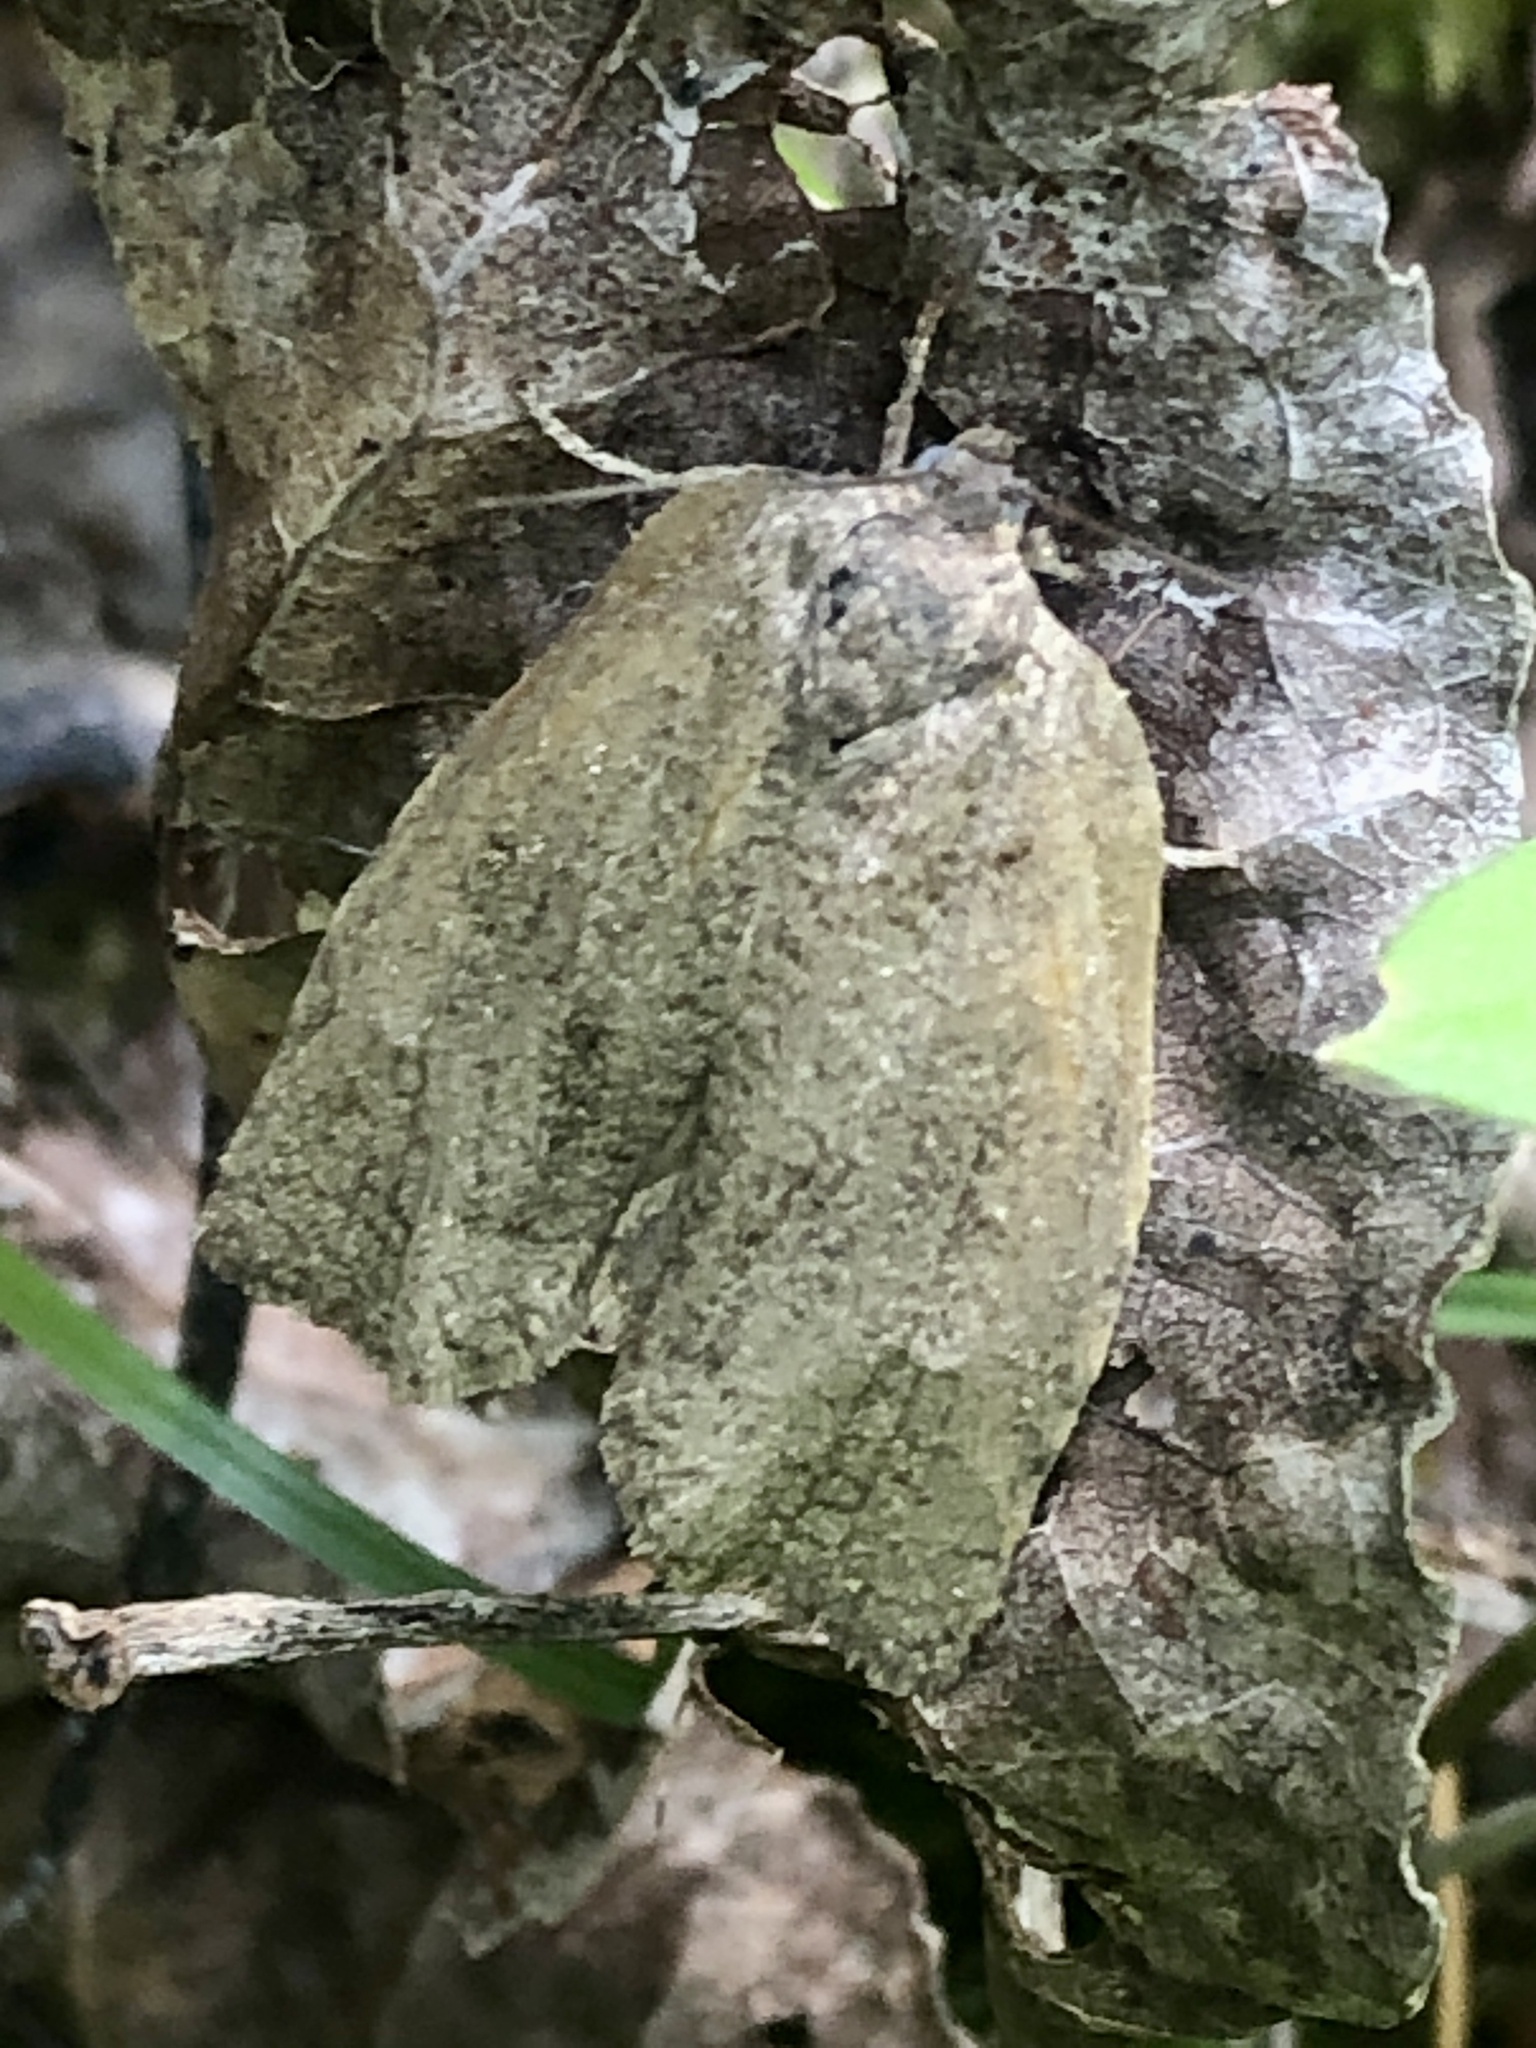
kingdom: Animalia
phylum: Arthropoda
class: Insecta
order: Lepidoptera
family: Tortricidae
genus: Choristoneura
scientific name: Choristoneura conflictana
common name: Large aspen tortrix
